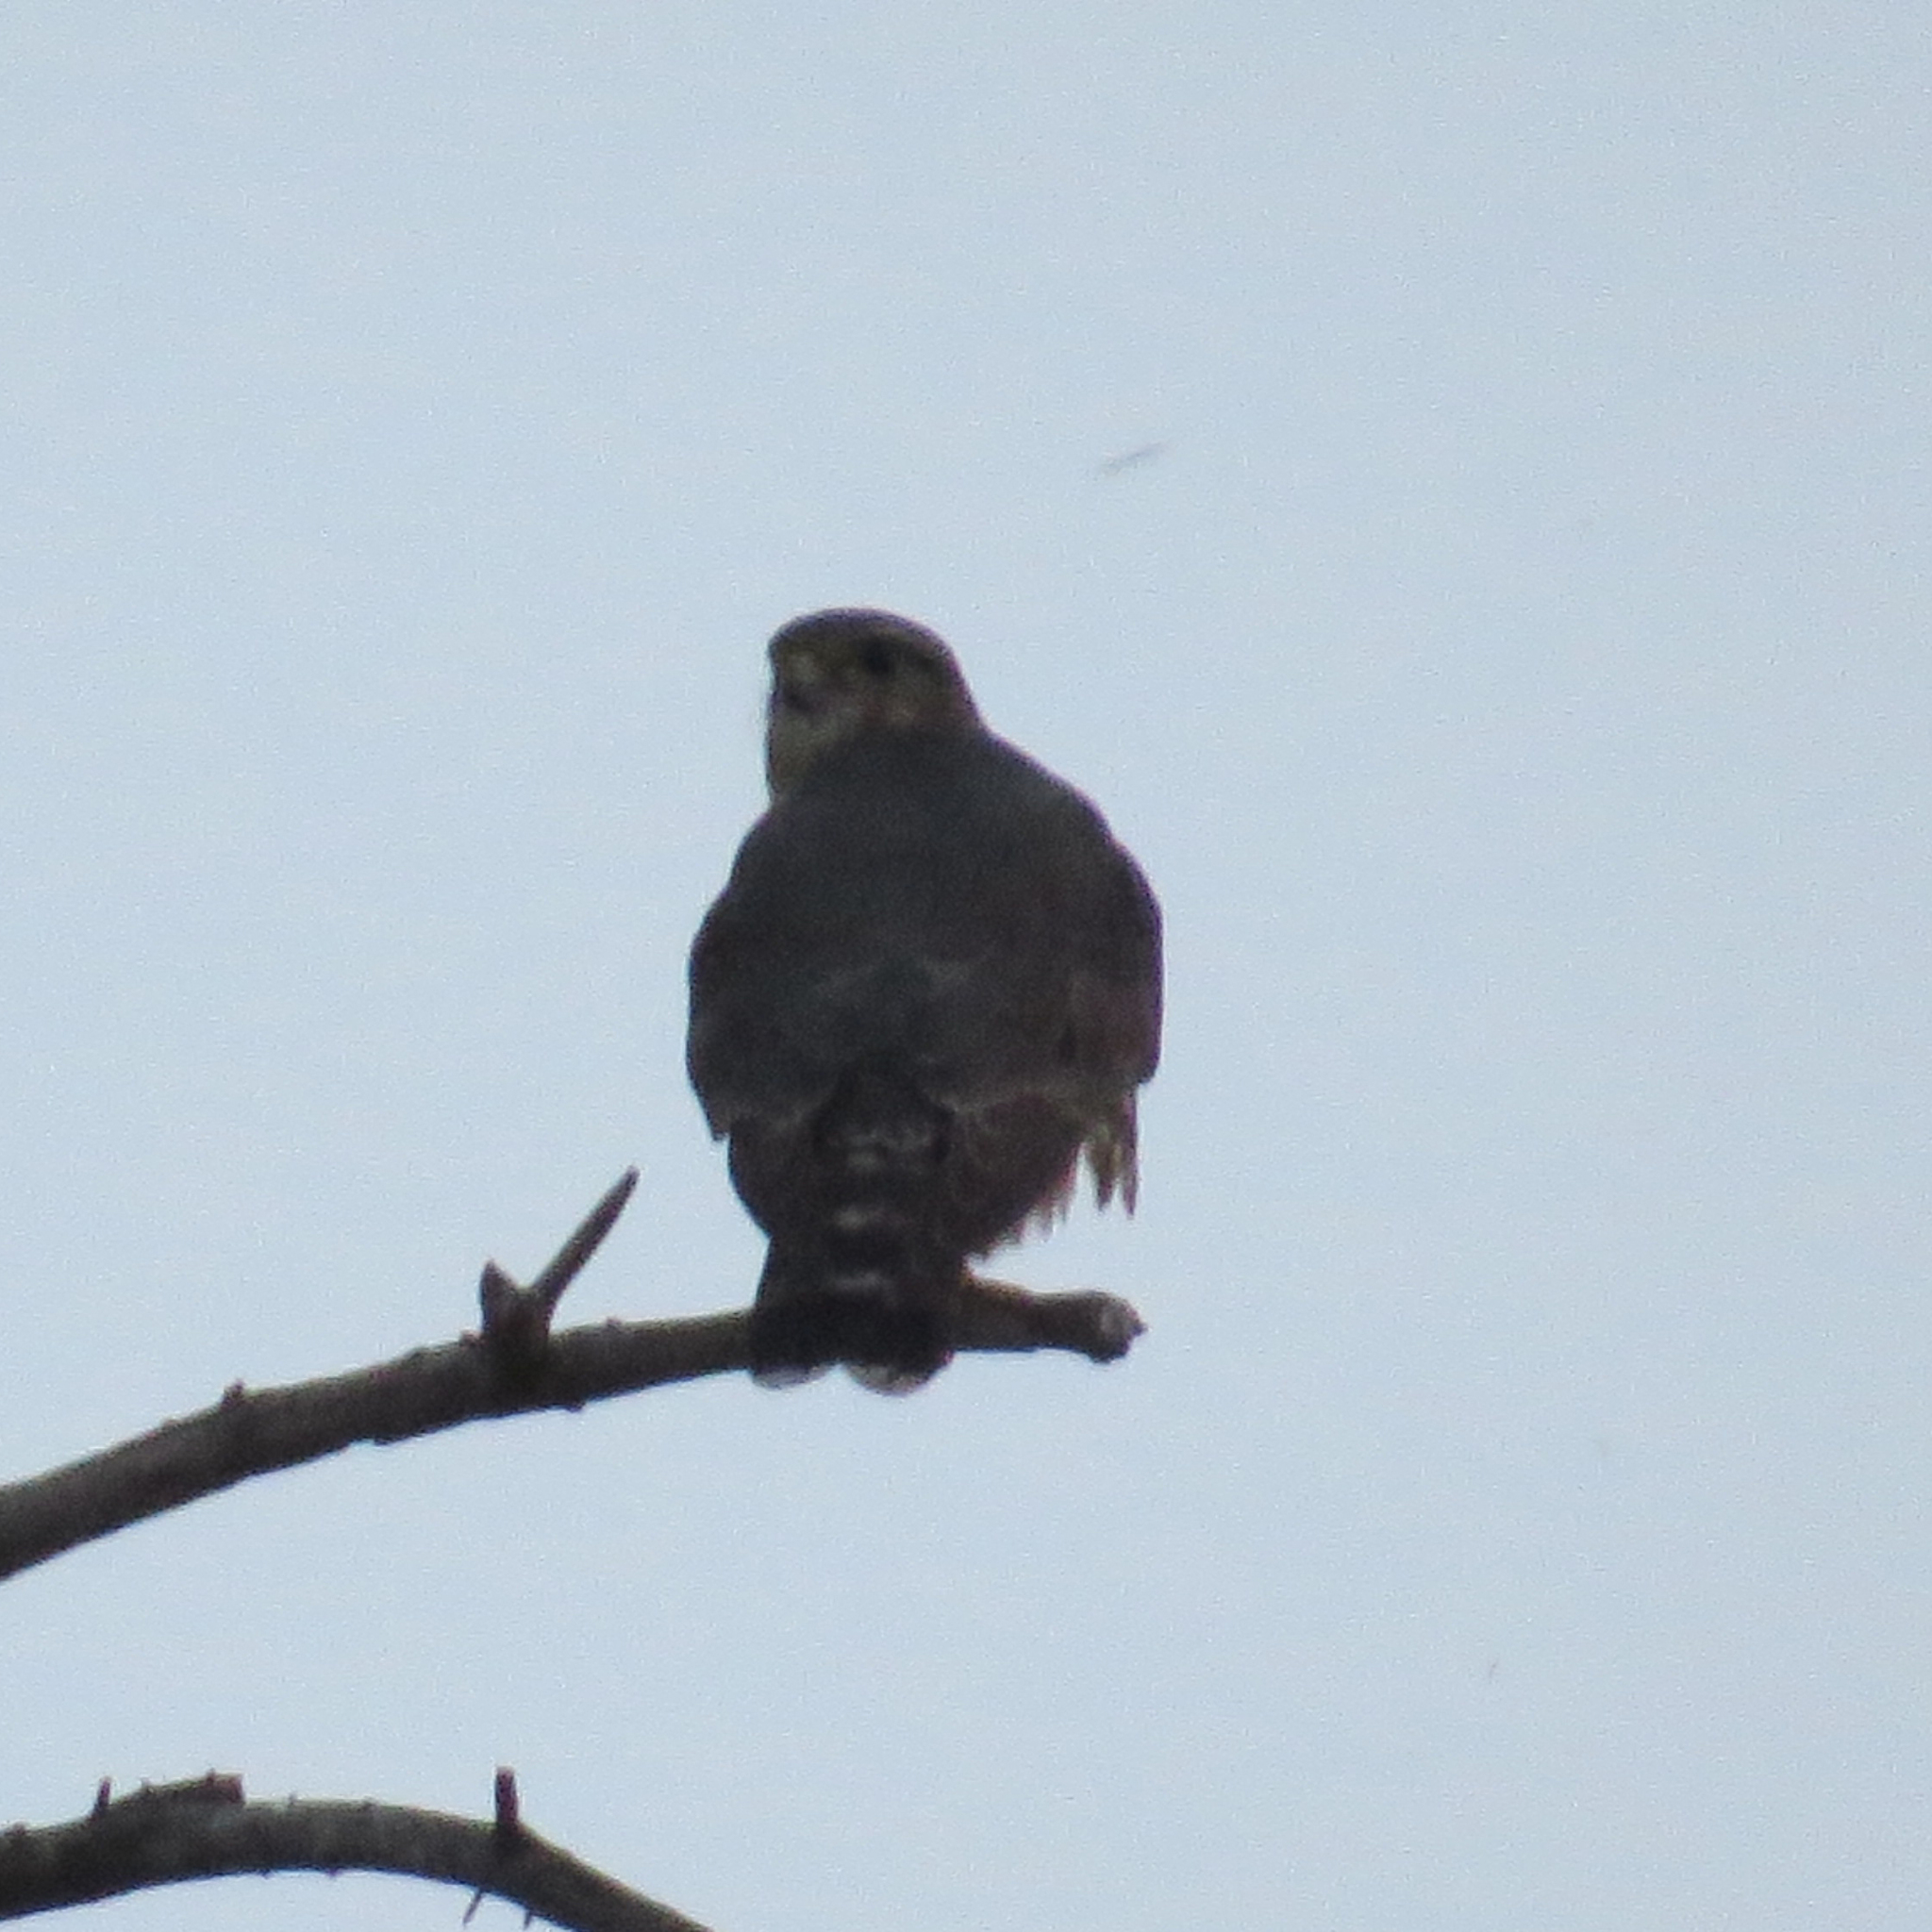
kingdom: Animalia
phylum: Chordata
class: Aves
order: Falconiformes
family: Falconidae
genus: Falco
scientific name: Falco columbarius
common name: Merlin
